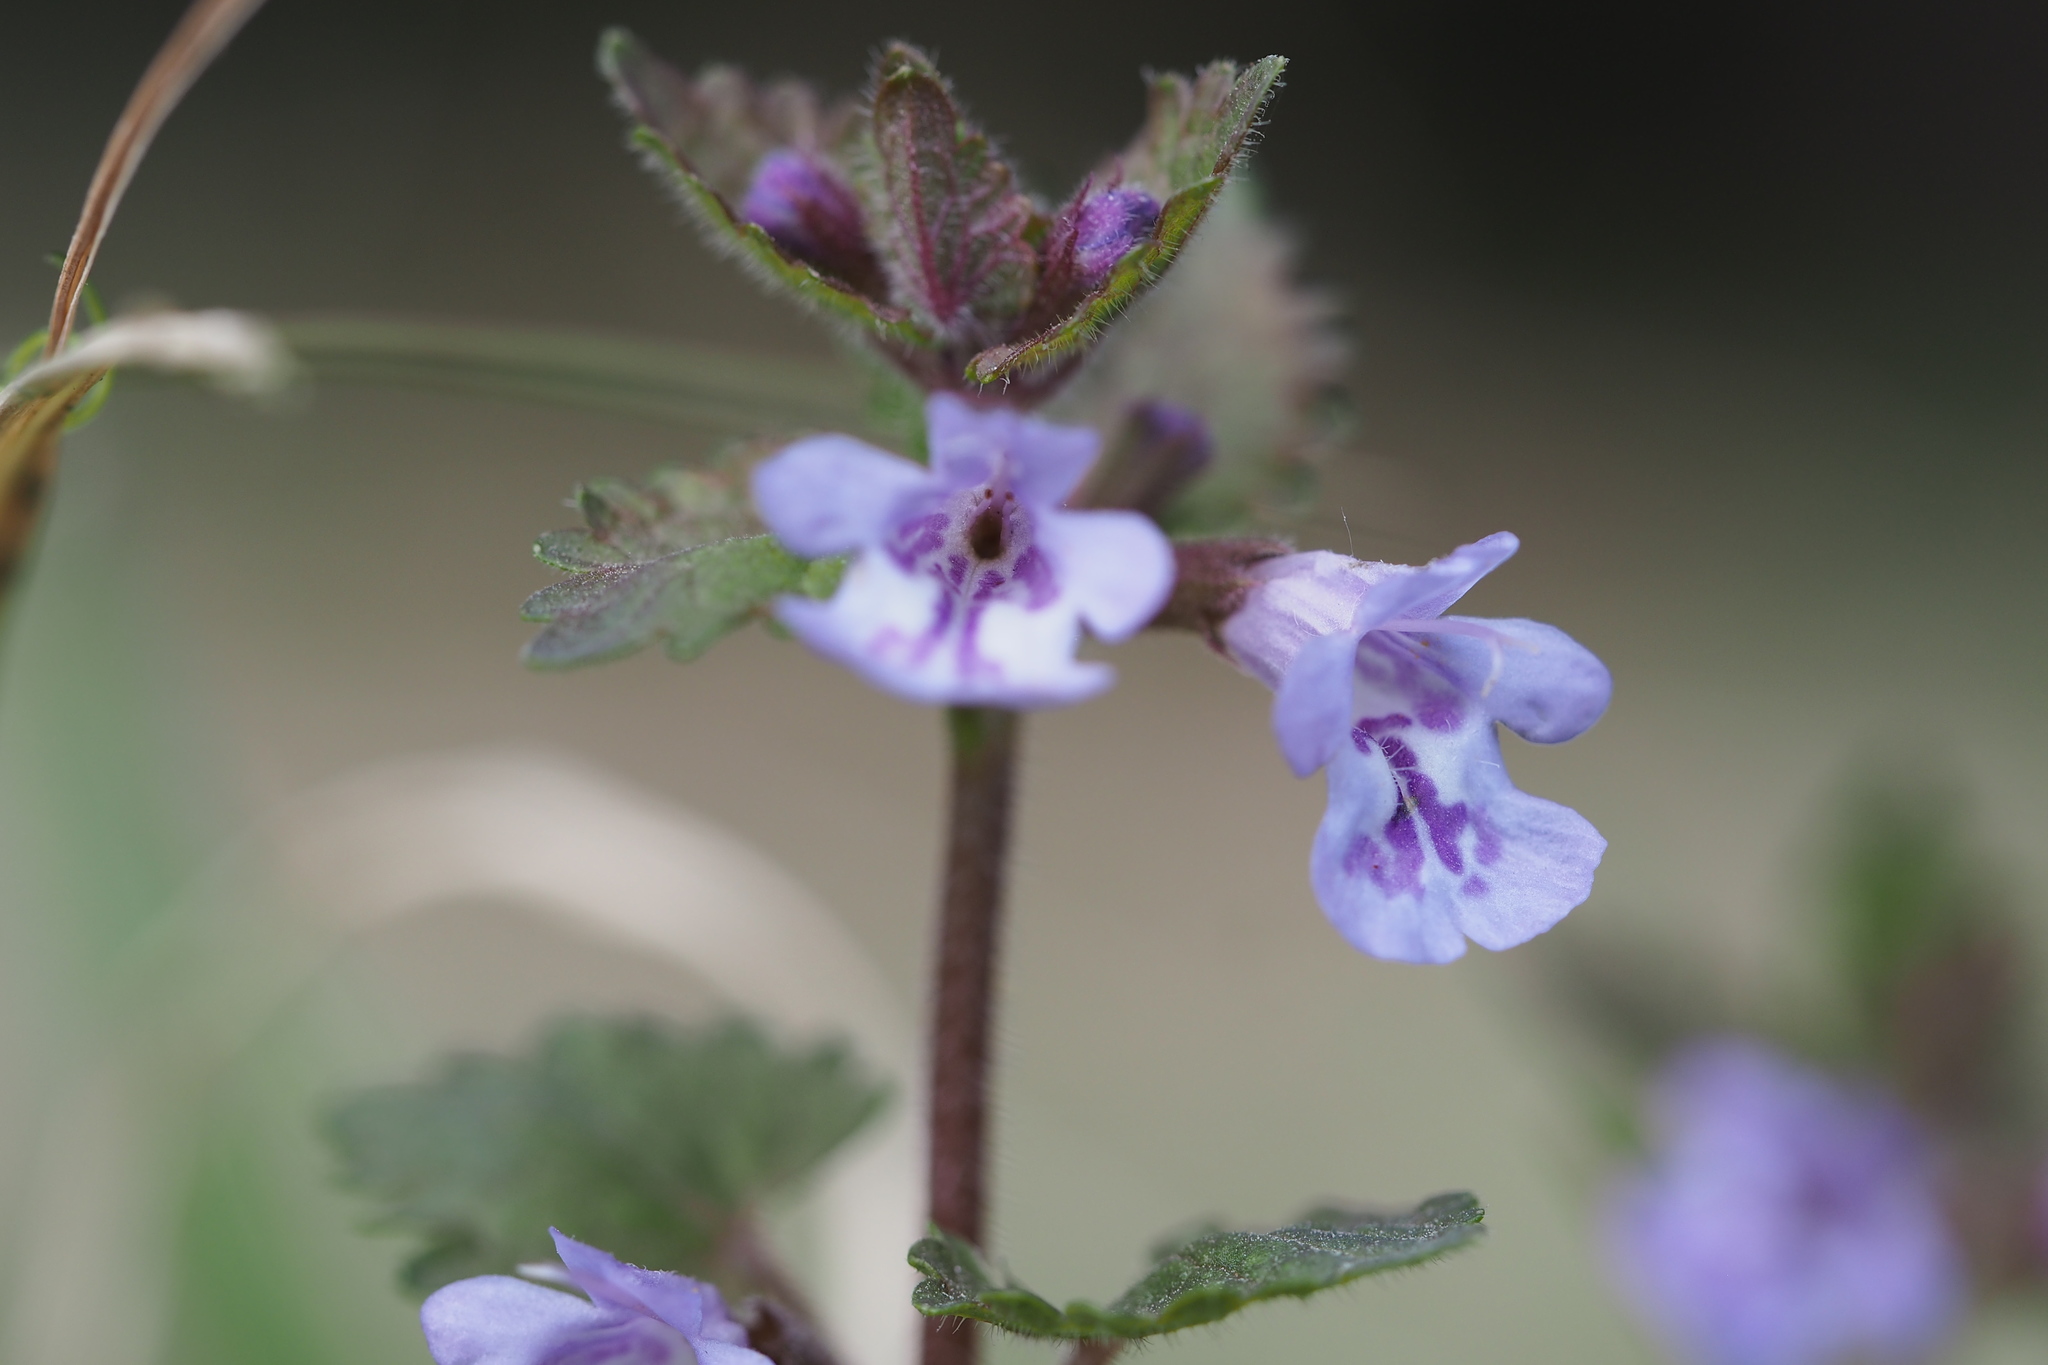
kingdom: Plantae
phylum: Tracheophyta
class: Magnoliopsida
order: Lamiales
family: Lamiaceae
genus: Glechoma
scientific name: Glechoma grandis
